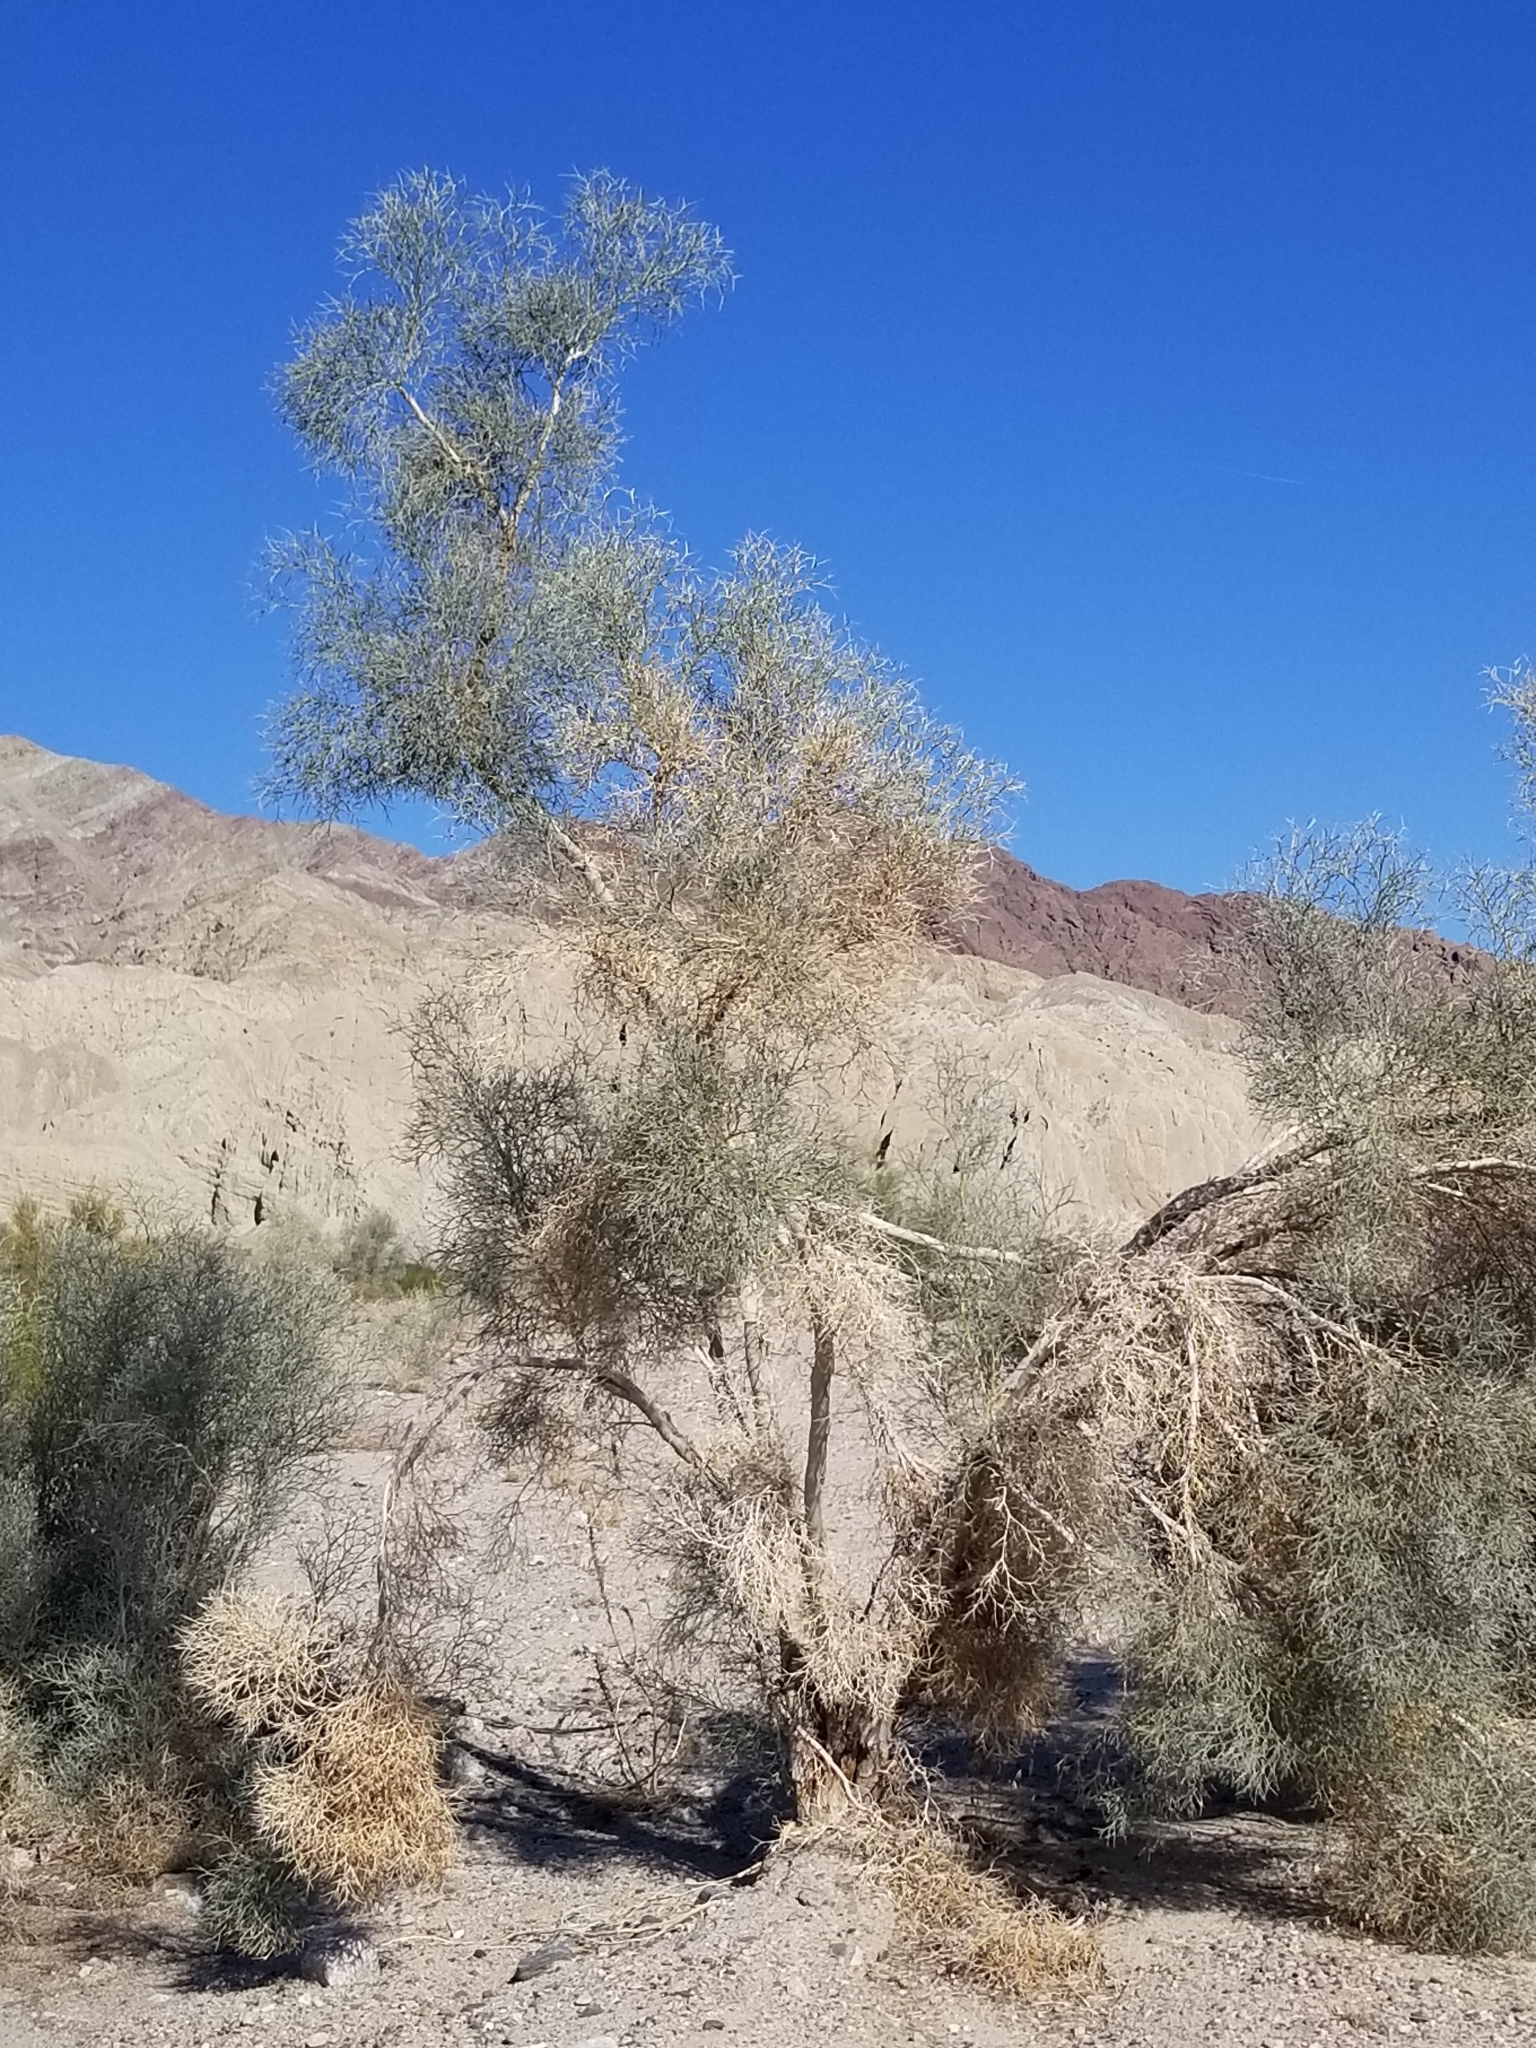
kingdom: Plantae
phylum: Tracheophyta
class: Magnoliopsida
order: Fabales
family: Fabaceae
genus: Psorothamnus
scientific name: Psorothamnus spinosus
